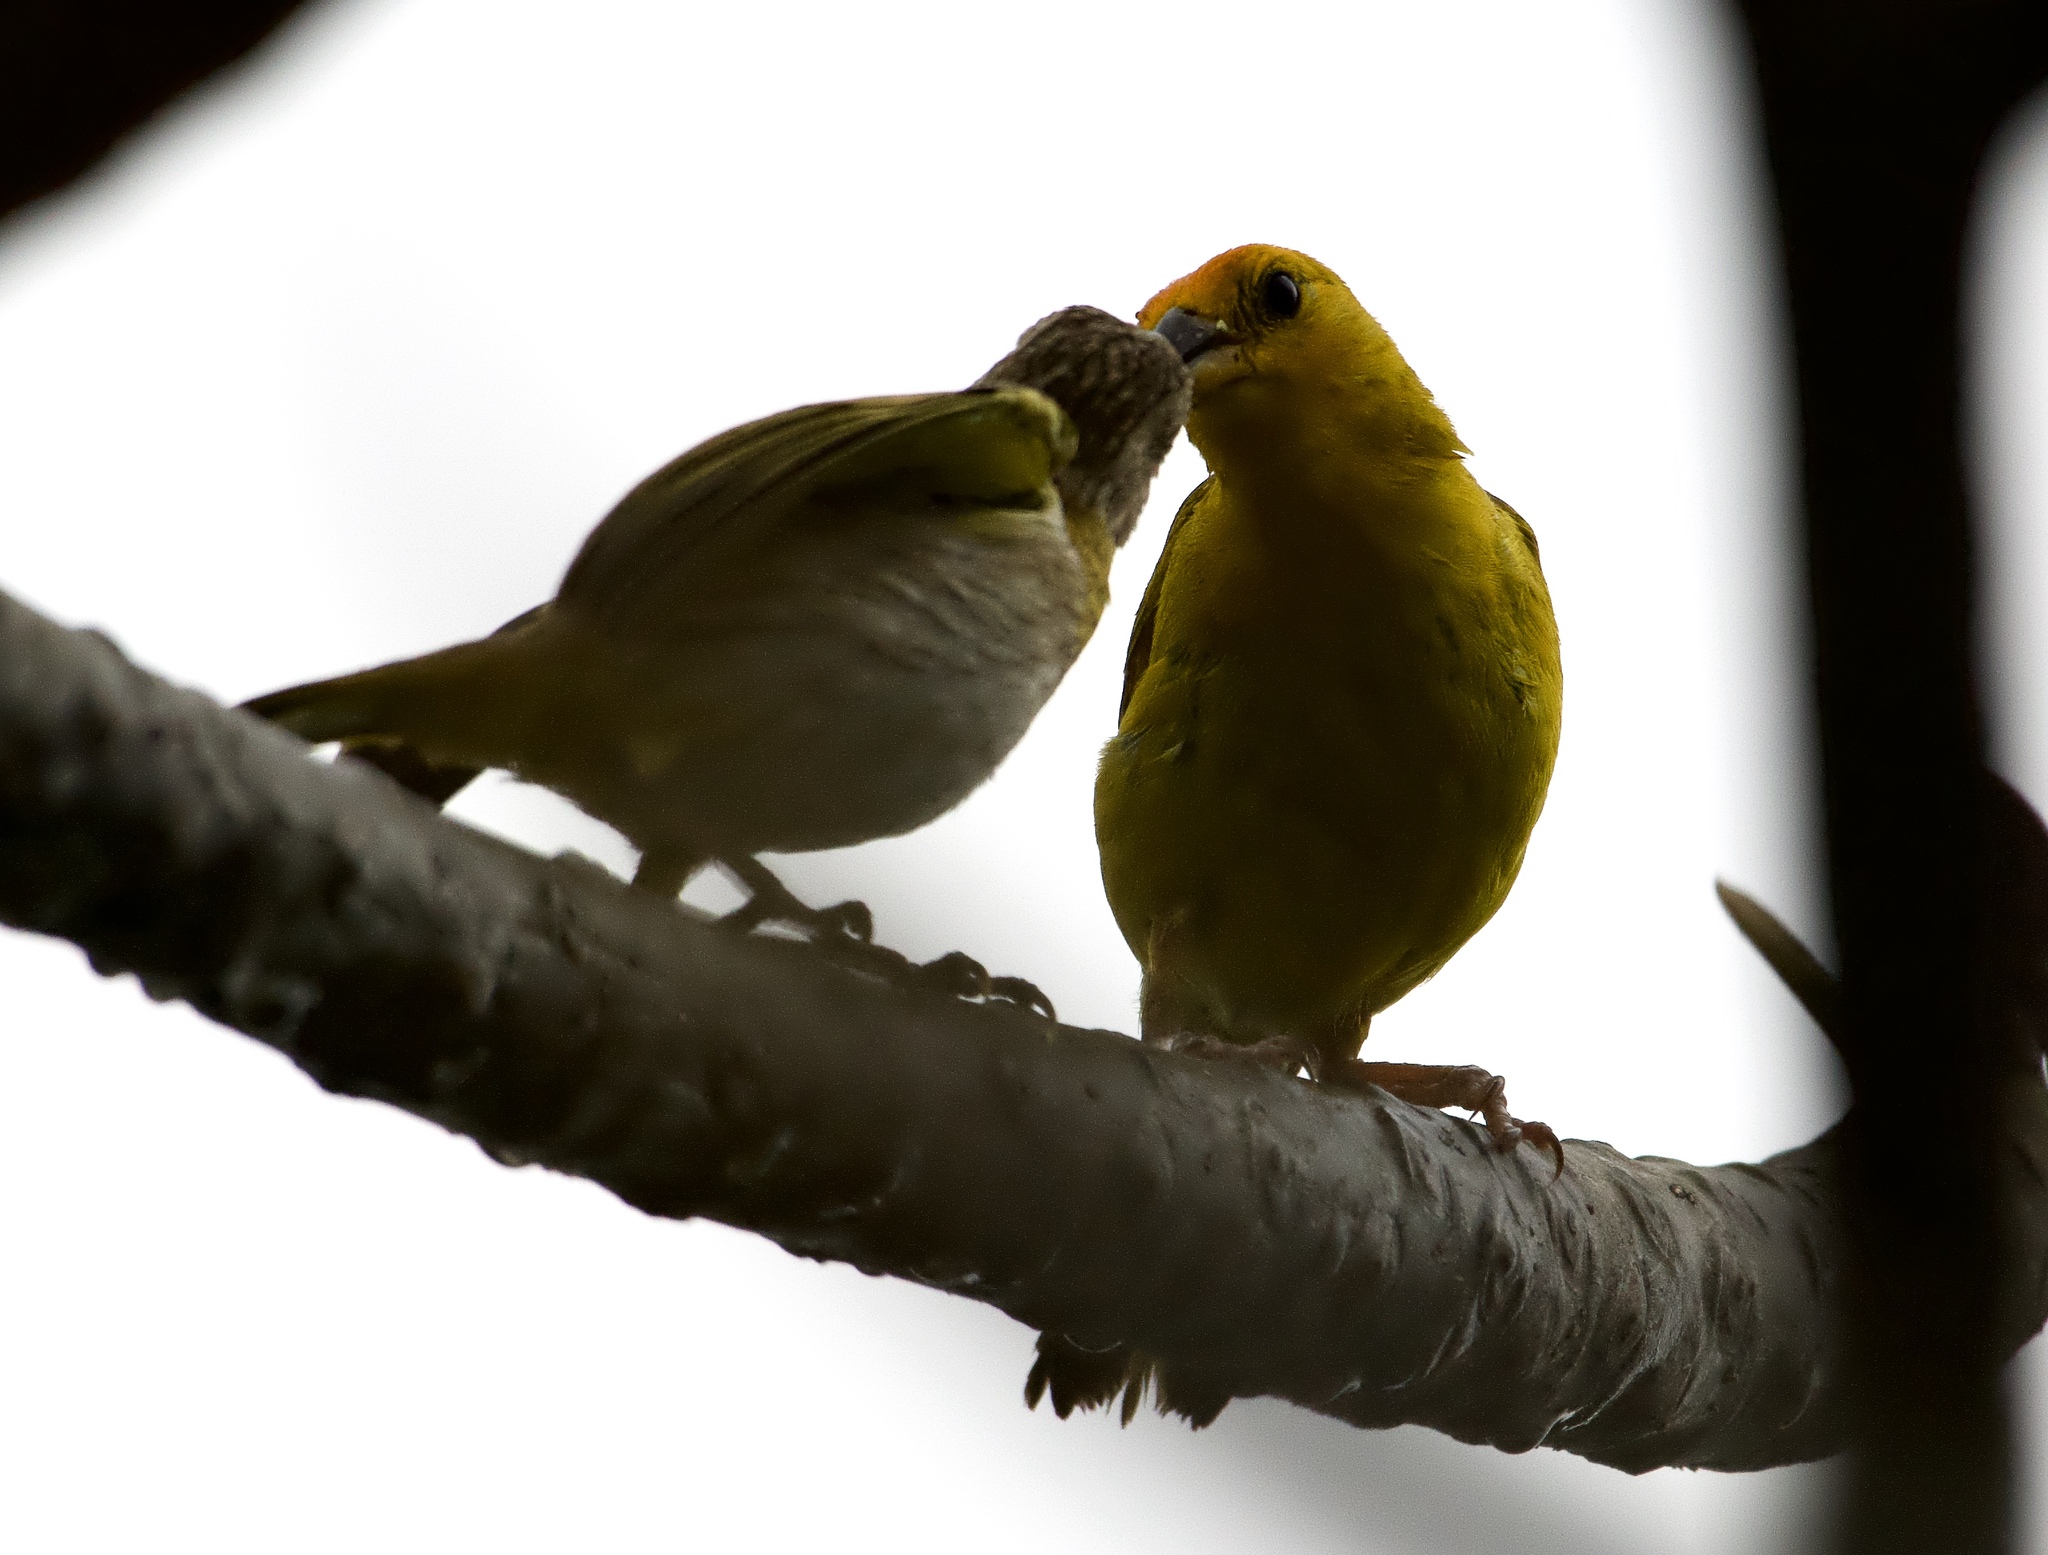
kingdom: Animalia
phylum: Chordata
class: Aves
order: Passeriformes
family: Thraupidae
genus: Sicalis
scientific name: Sicalis flaveola
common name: Saffron finch
